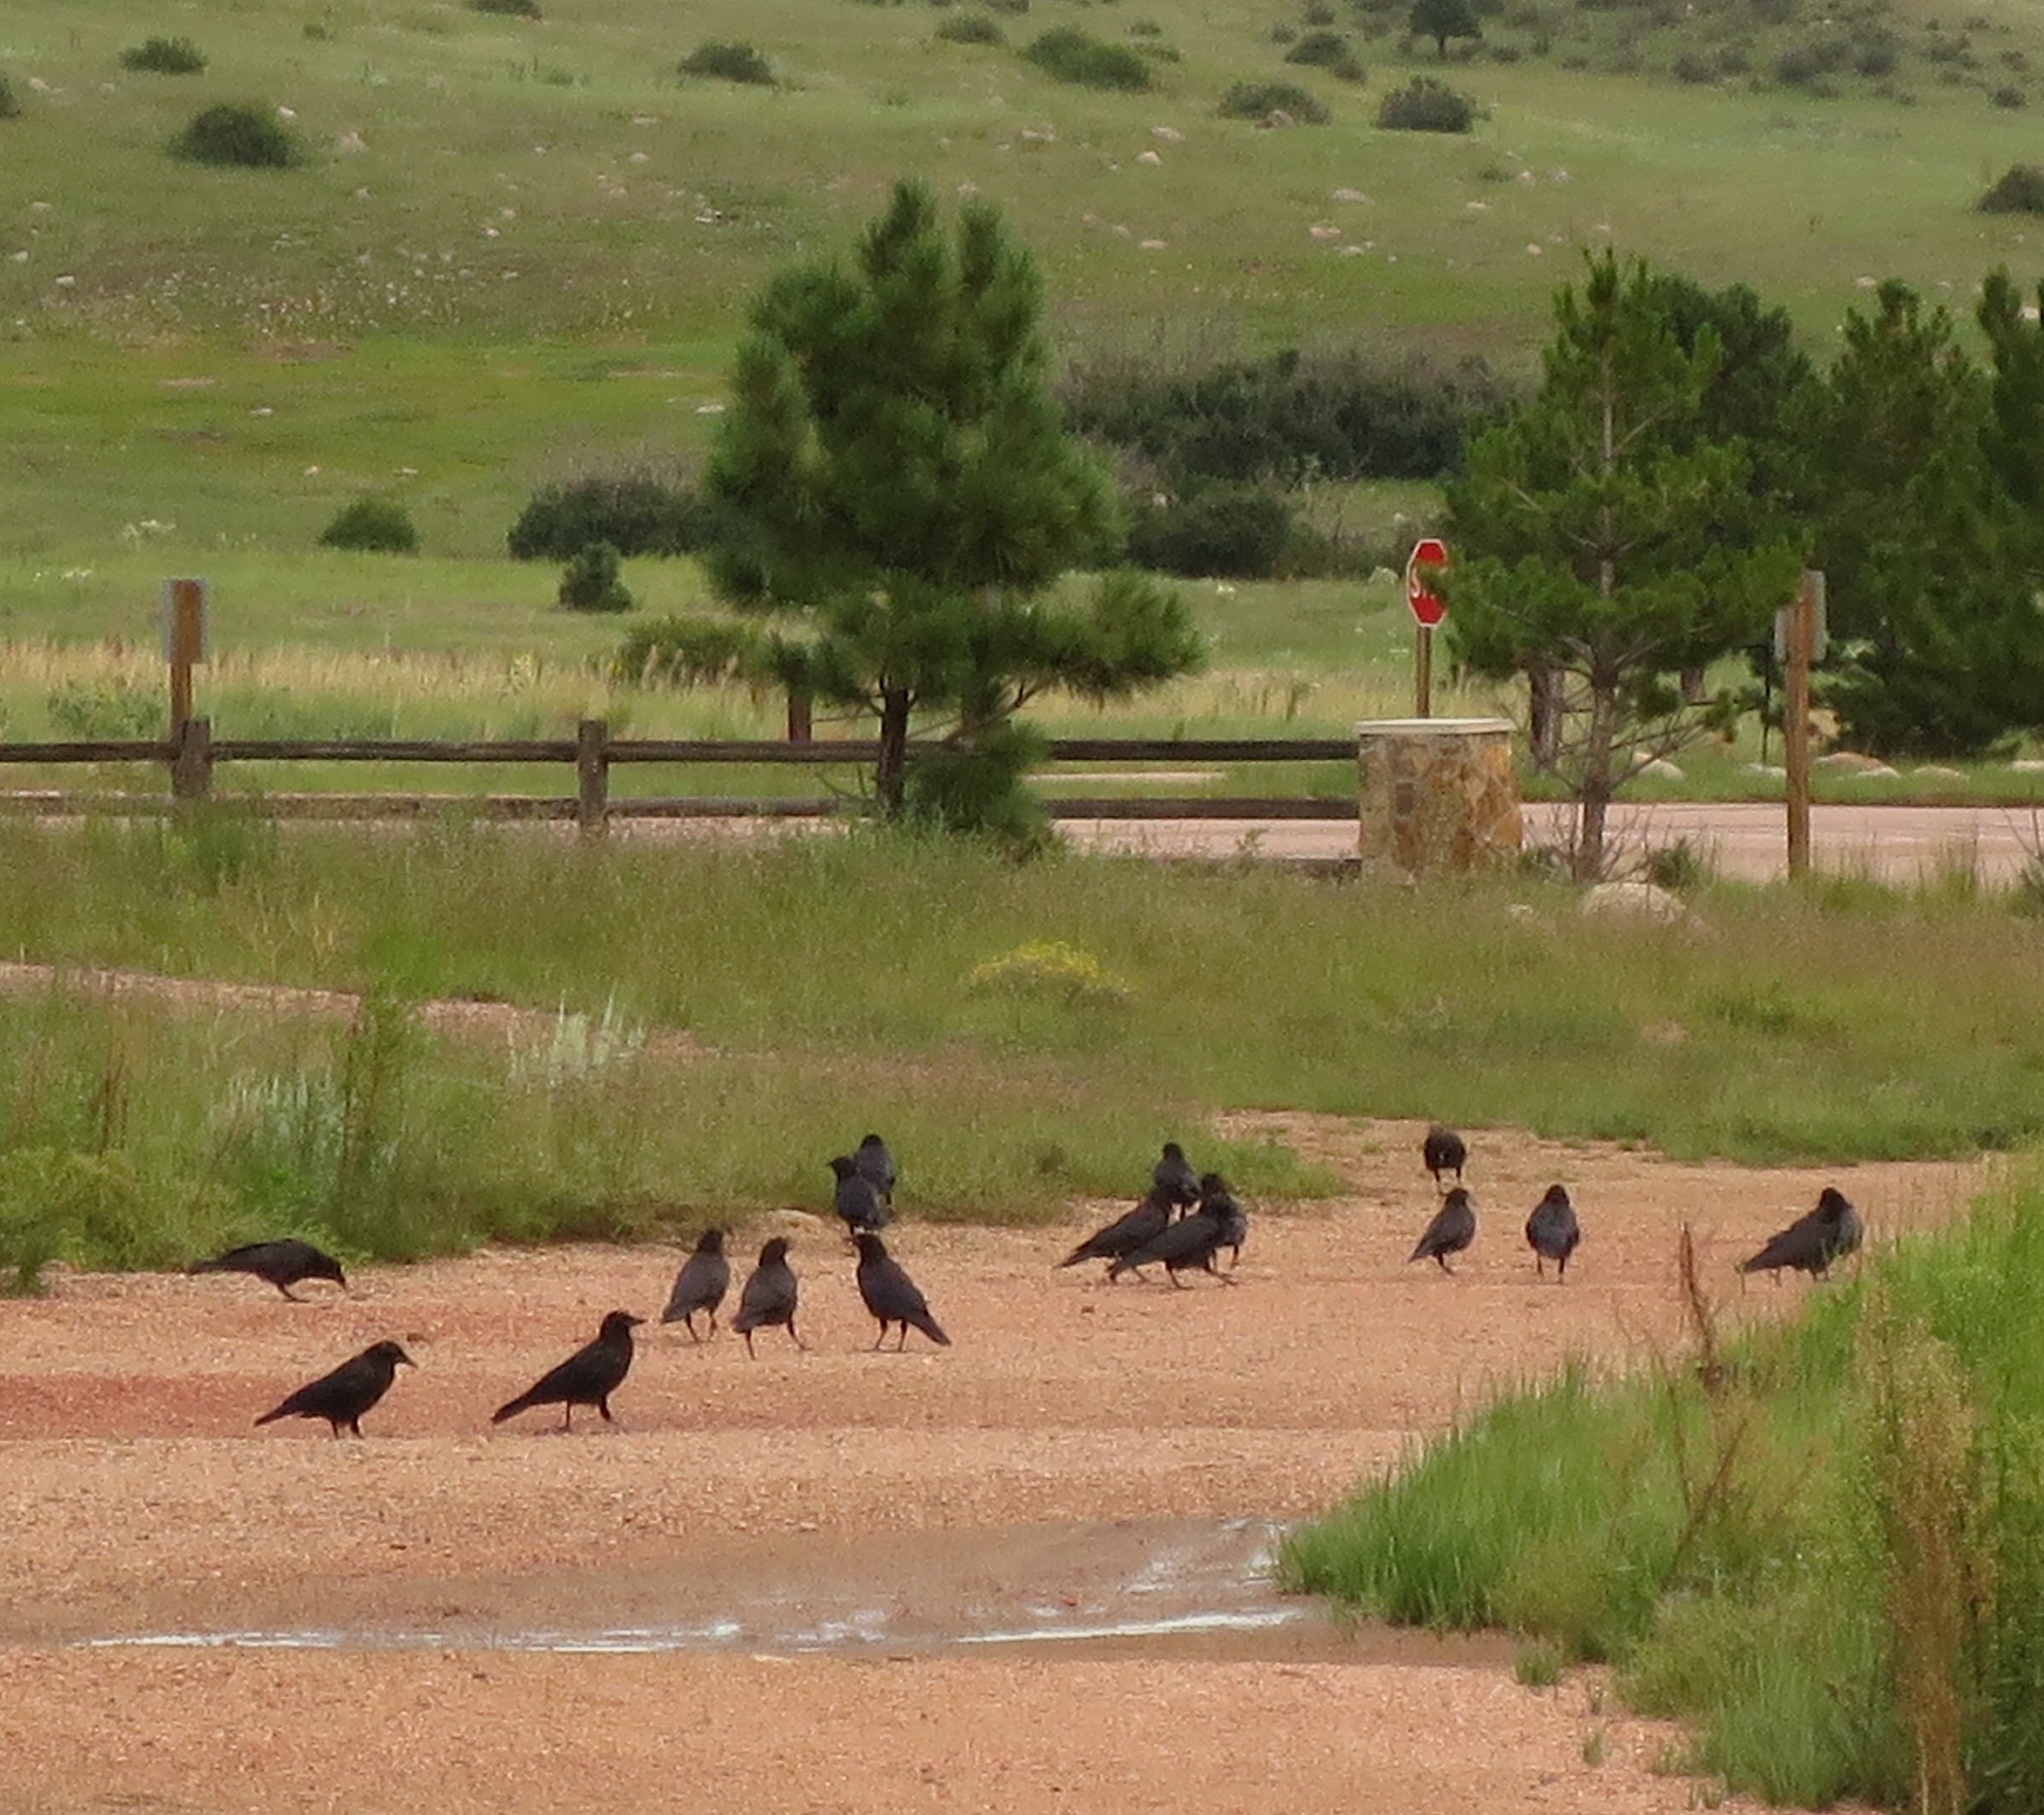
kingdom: Animalia
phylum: Chordata
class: Aves
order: Passeriformes
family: Corvidae
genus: Corvus
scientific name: Corvus brachyrhynchos
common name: American crow
